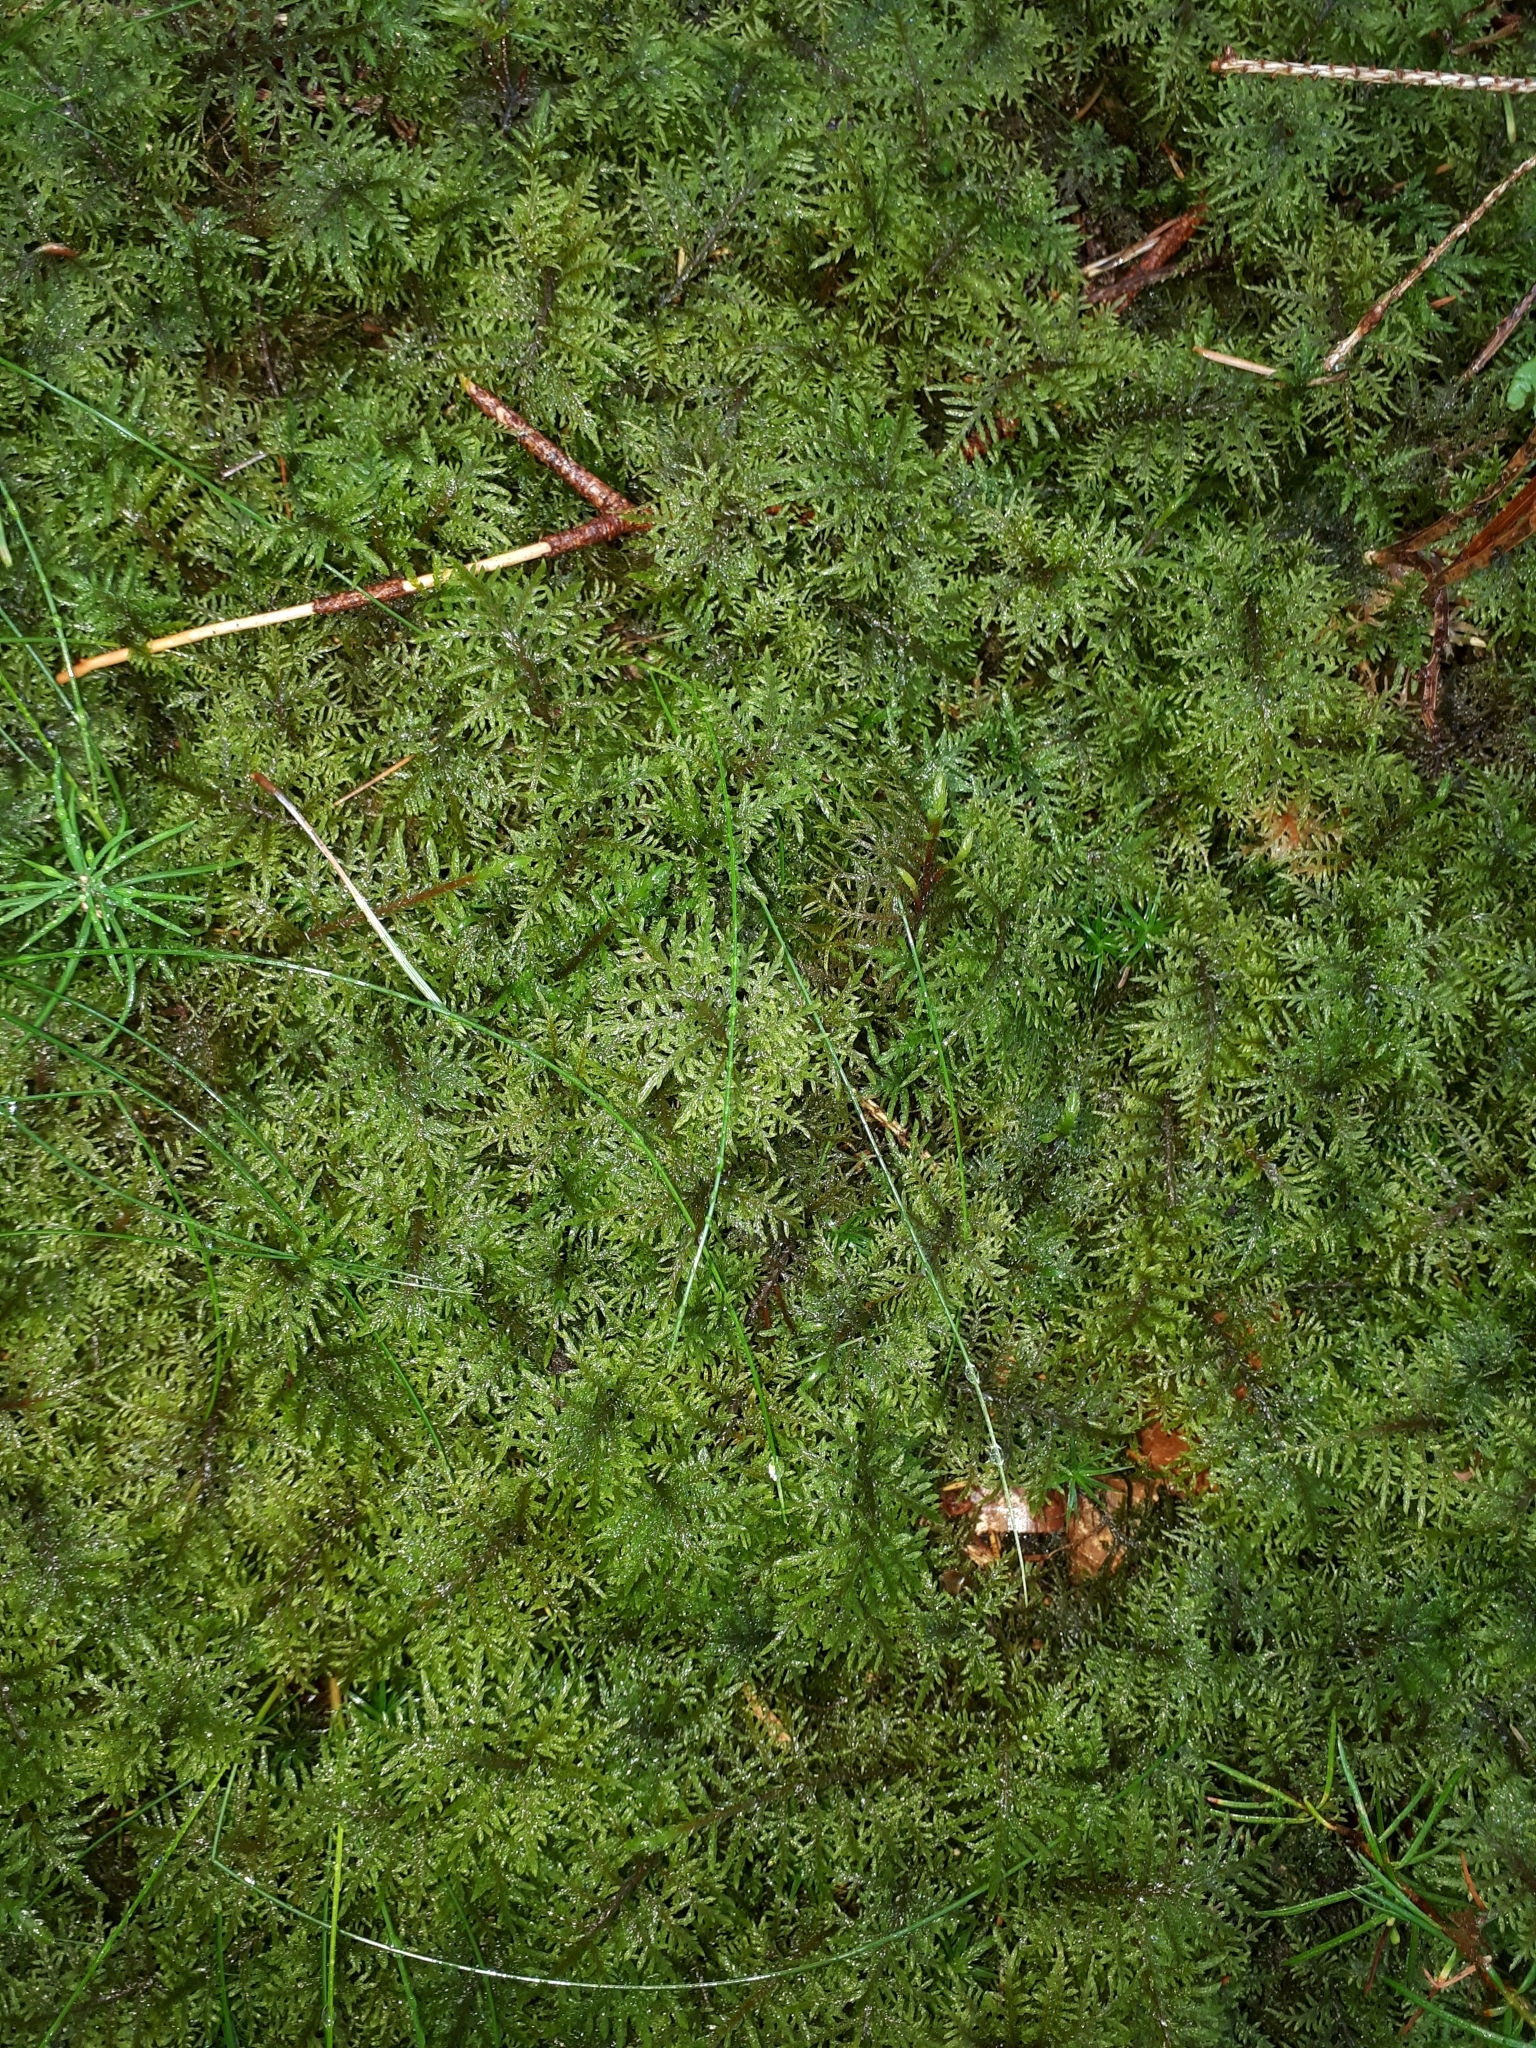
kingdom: Plantae
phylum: Bryophyta
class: Bryopsida
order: Hypnales
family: Hylocomiaceae
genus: Hylocomium
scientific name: Hylocomium splendens
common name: Stairstep moss
